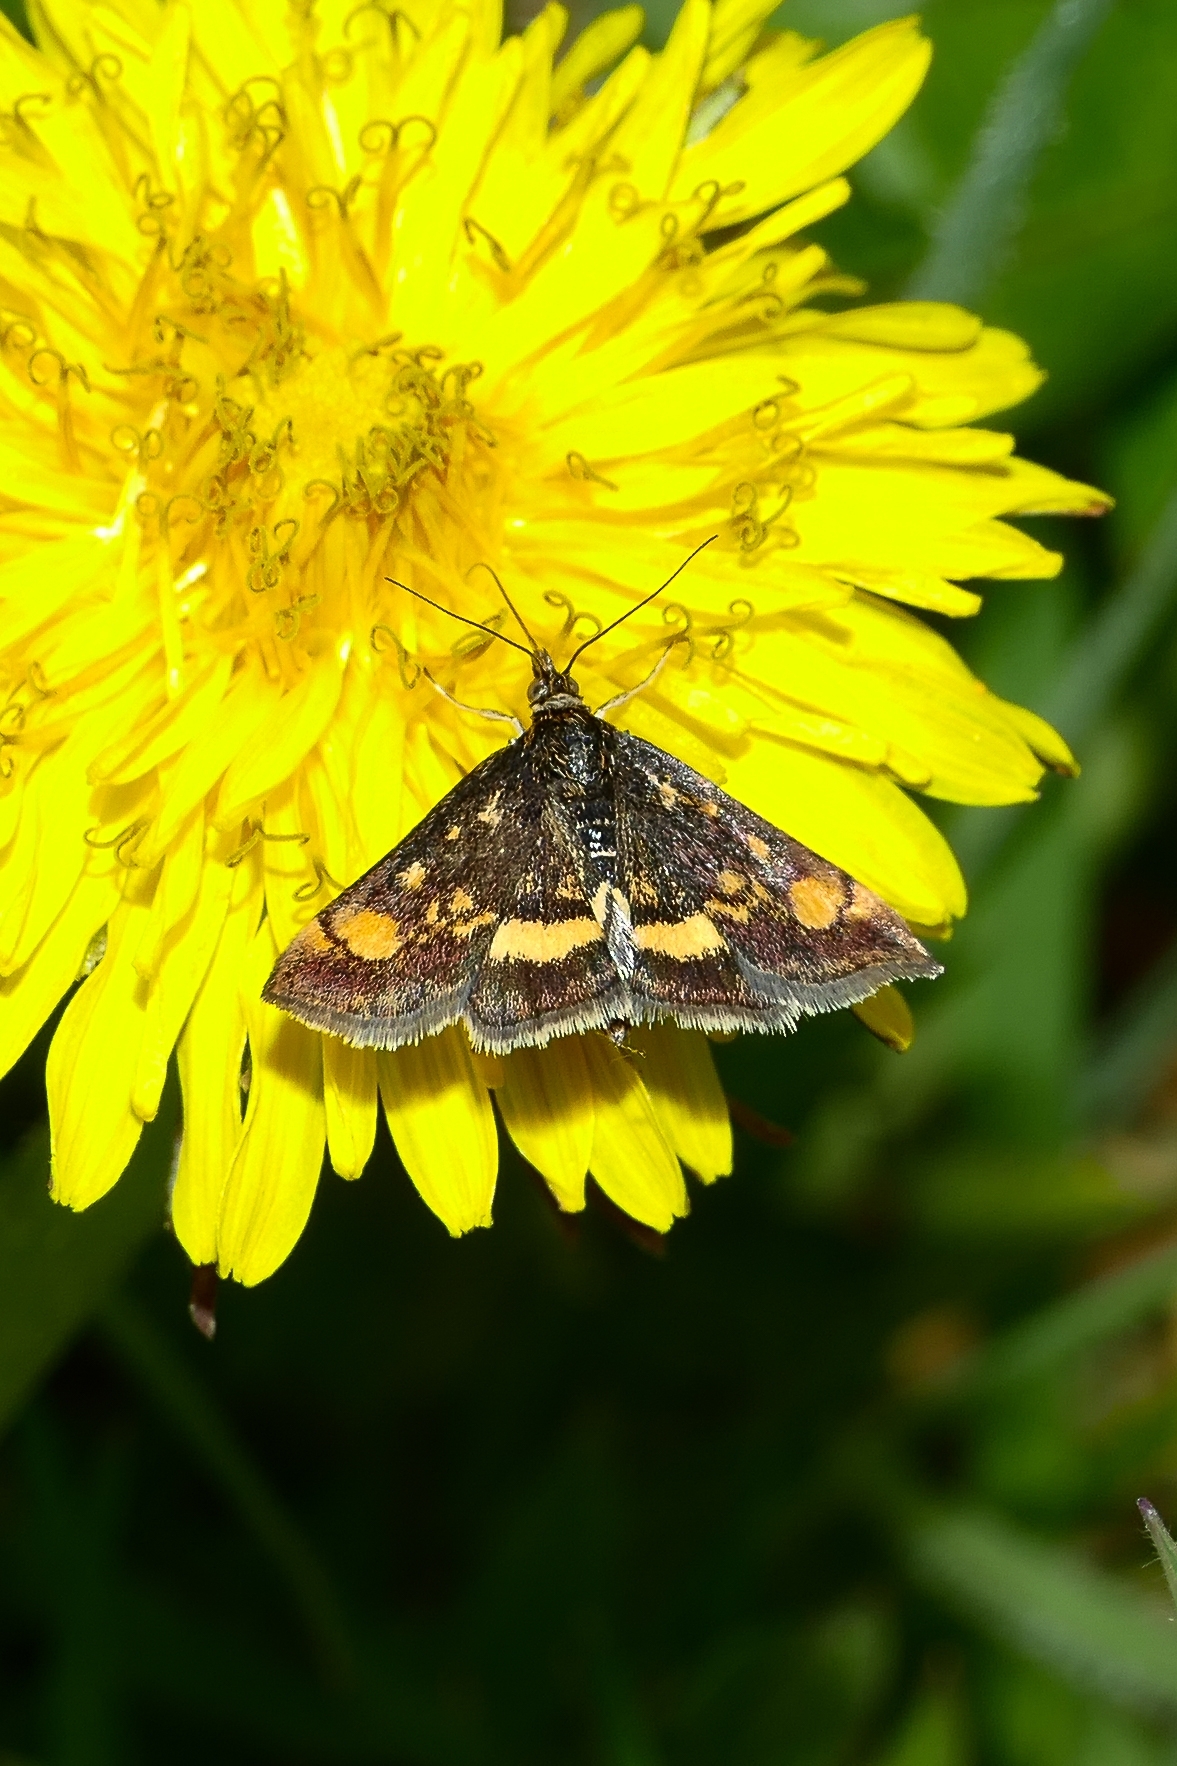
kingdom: Animalia
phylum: Arthropoda
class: Insecta
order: Lepidoptera
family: Crambidae
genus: Pyrausta
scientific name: Pyrausta aurata
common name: Small purple & gold
